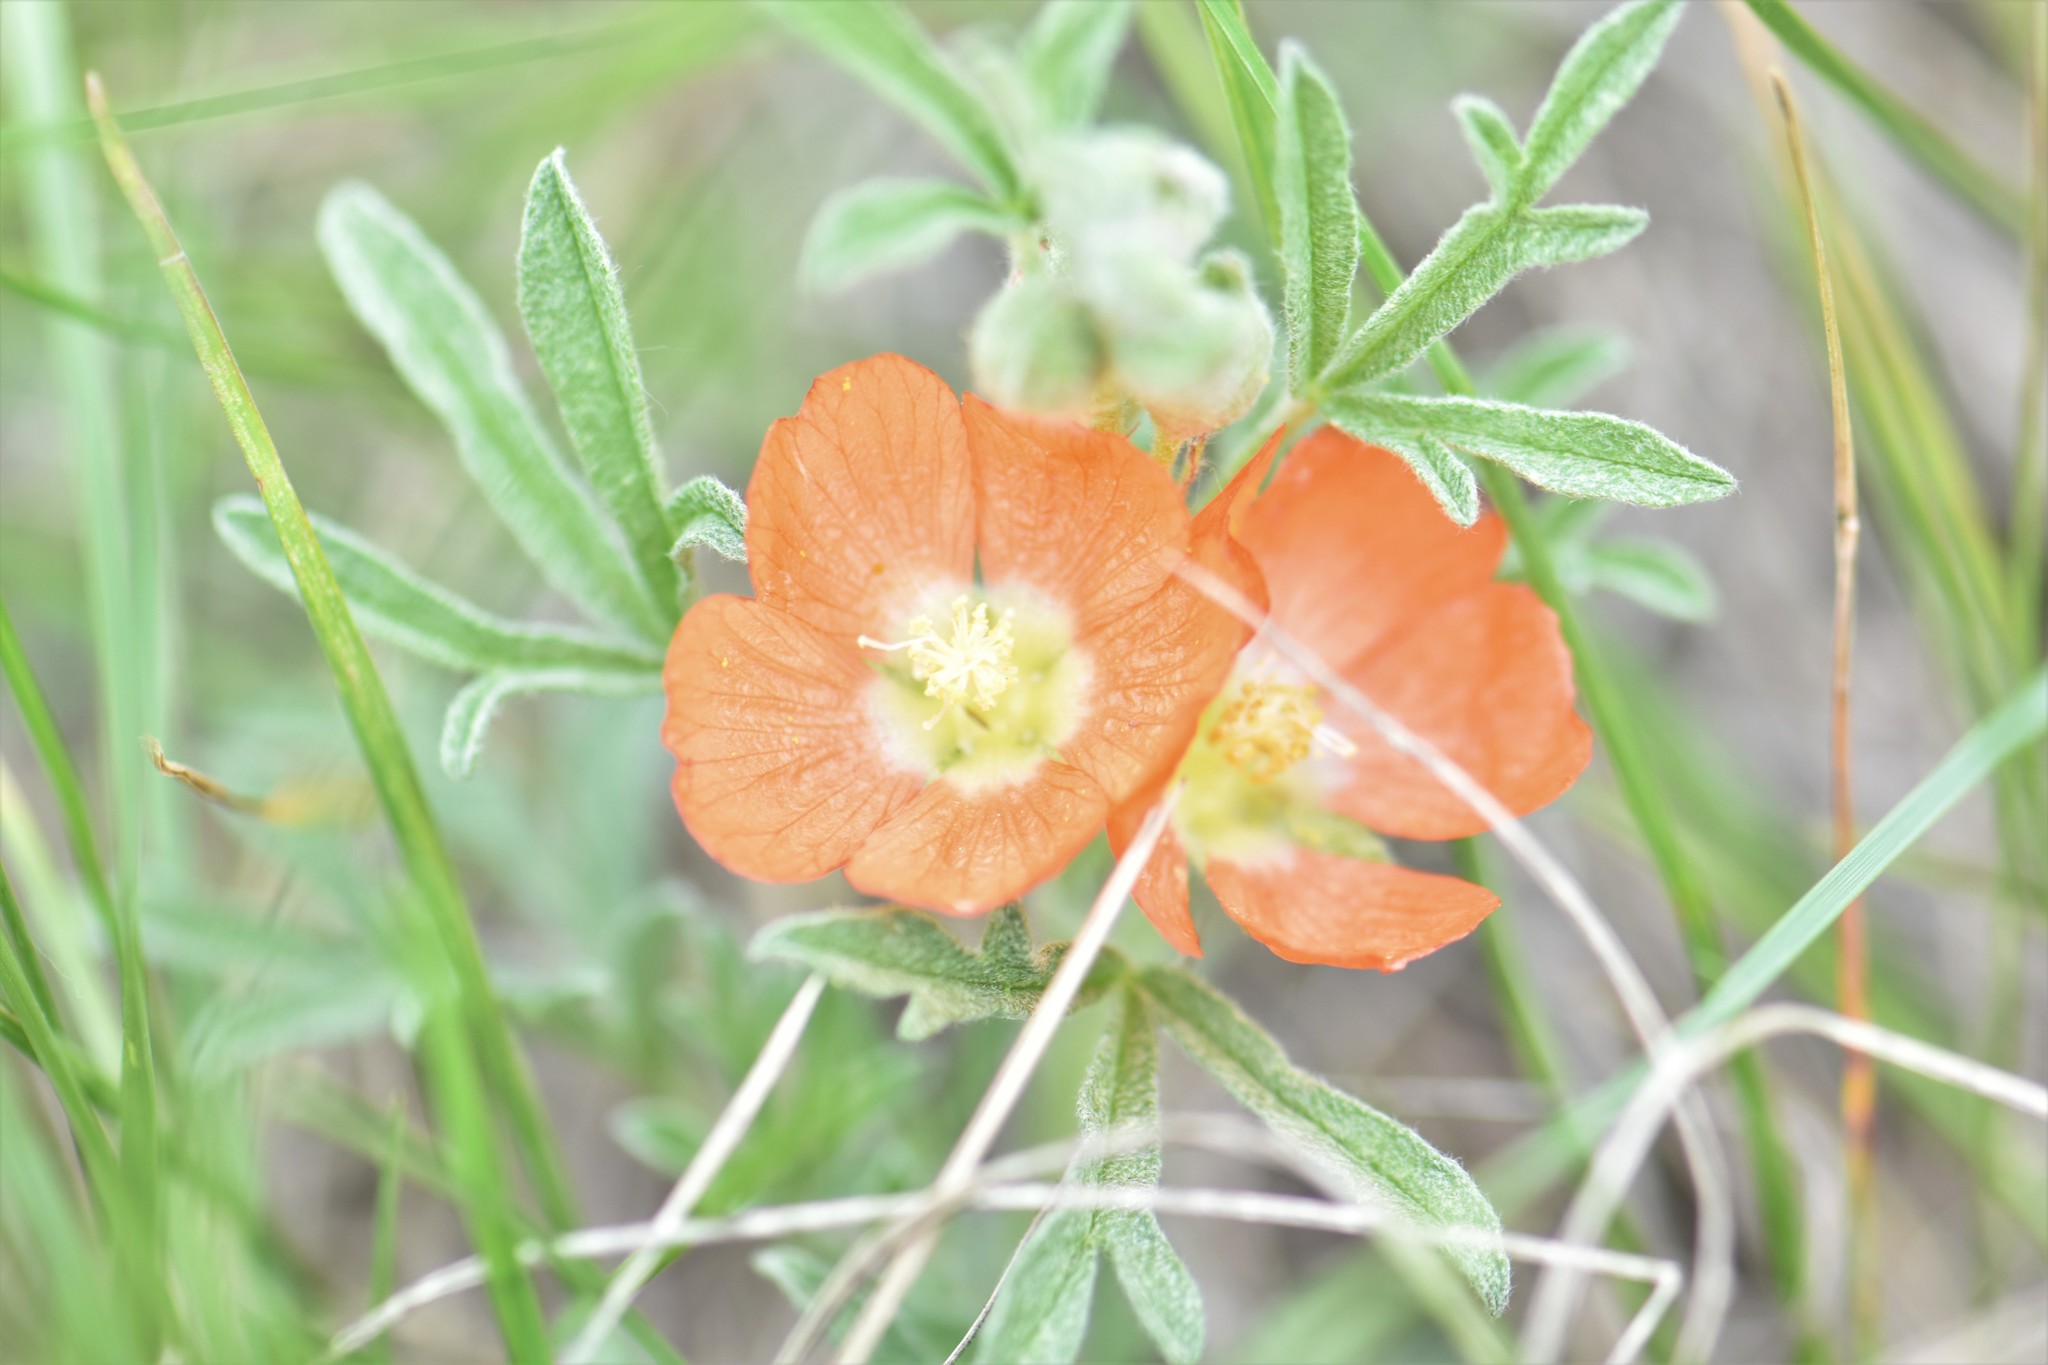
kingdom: Plantae
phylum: Tracheophyta
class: Magnoliopsida
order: Malvales
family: Malvaceae
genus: Sphaeralcea
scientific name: Sphaeralcea coccinea
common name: Moss-rose
